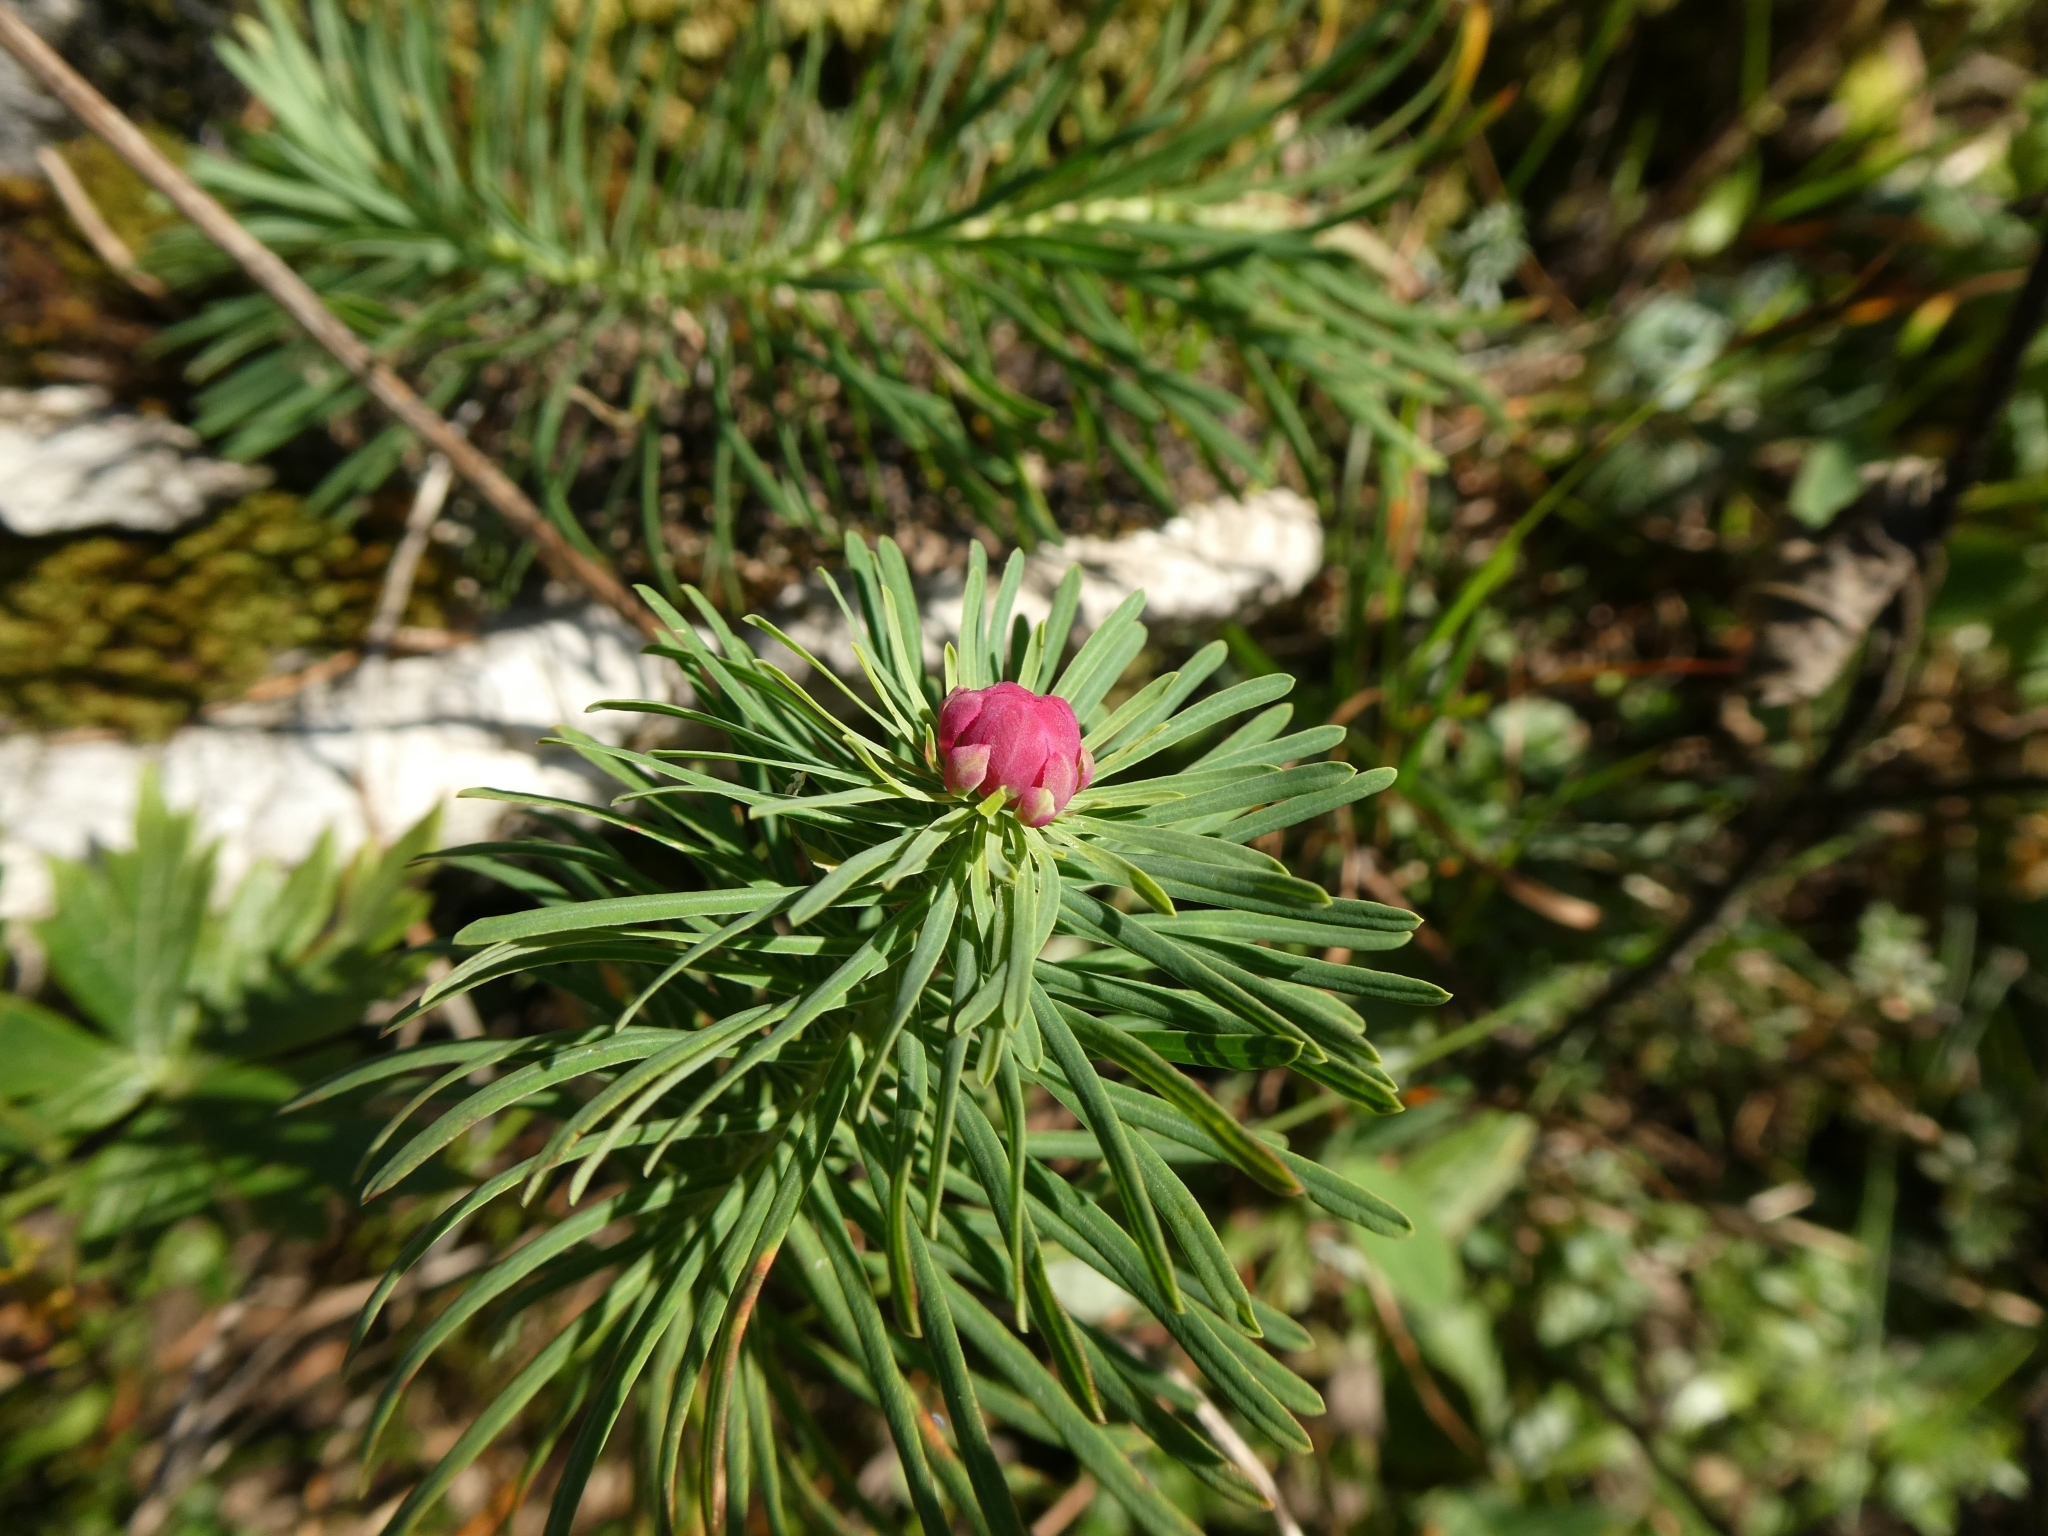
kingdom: Plantae
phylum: Tracheophyta
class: Magnoliopsida
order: Malpighiales
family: Euphorbiaceae
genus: Euphorbia
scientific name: Euphorbia cyparissias
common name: Cypress spurge
